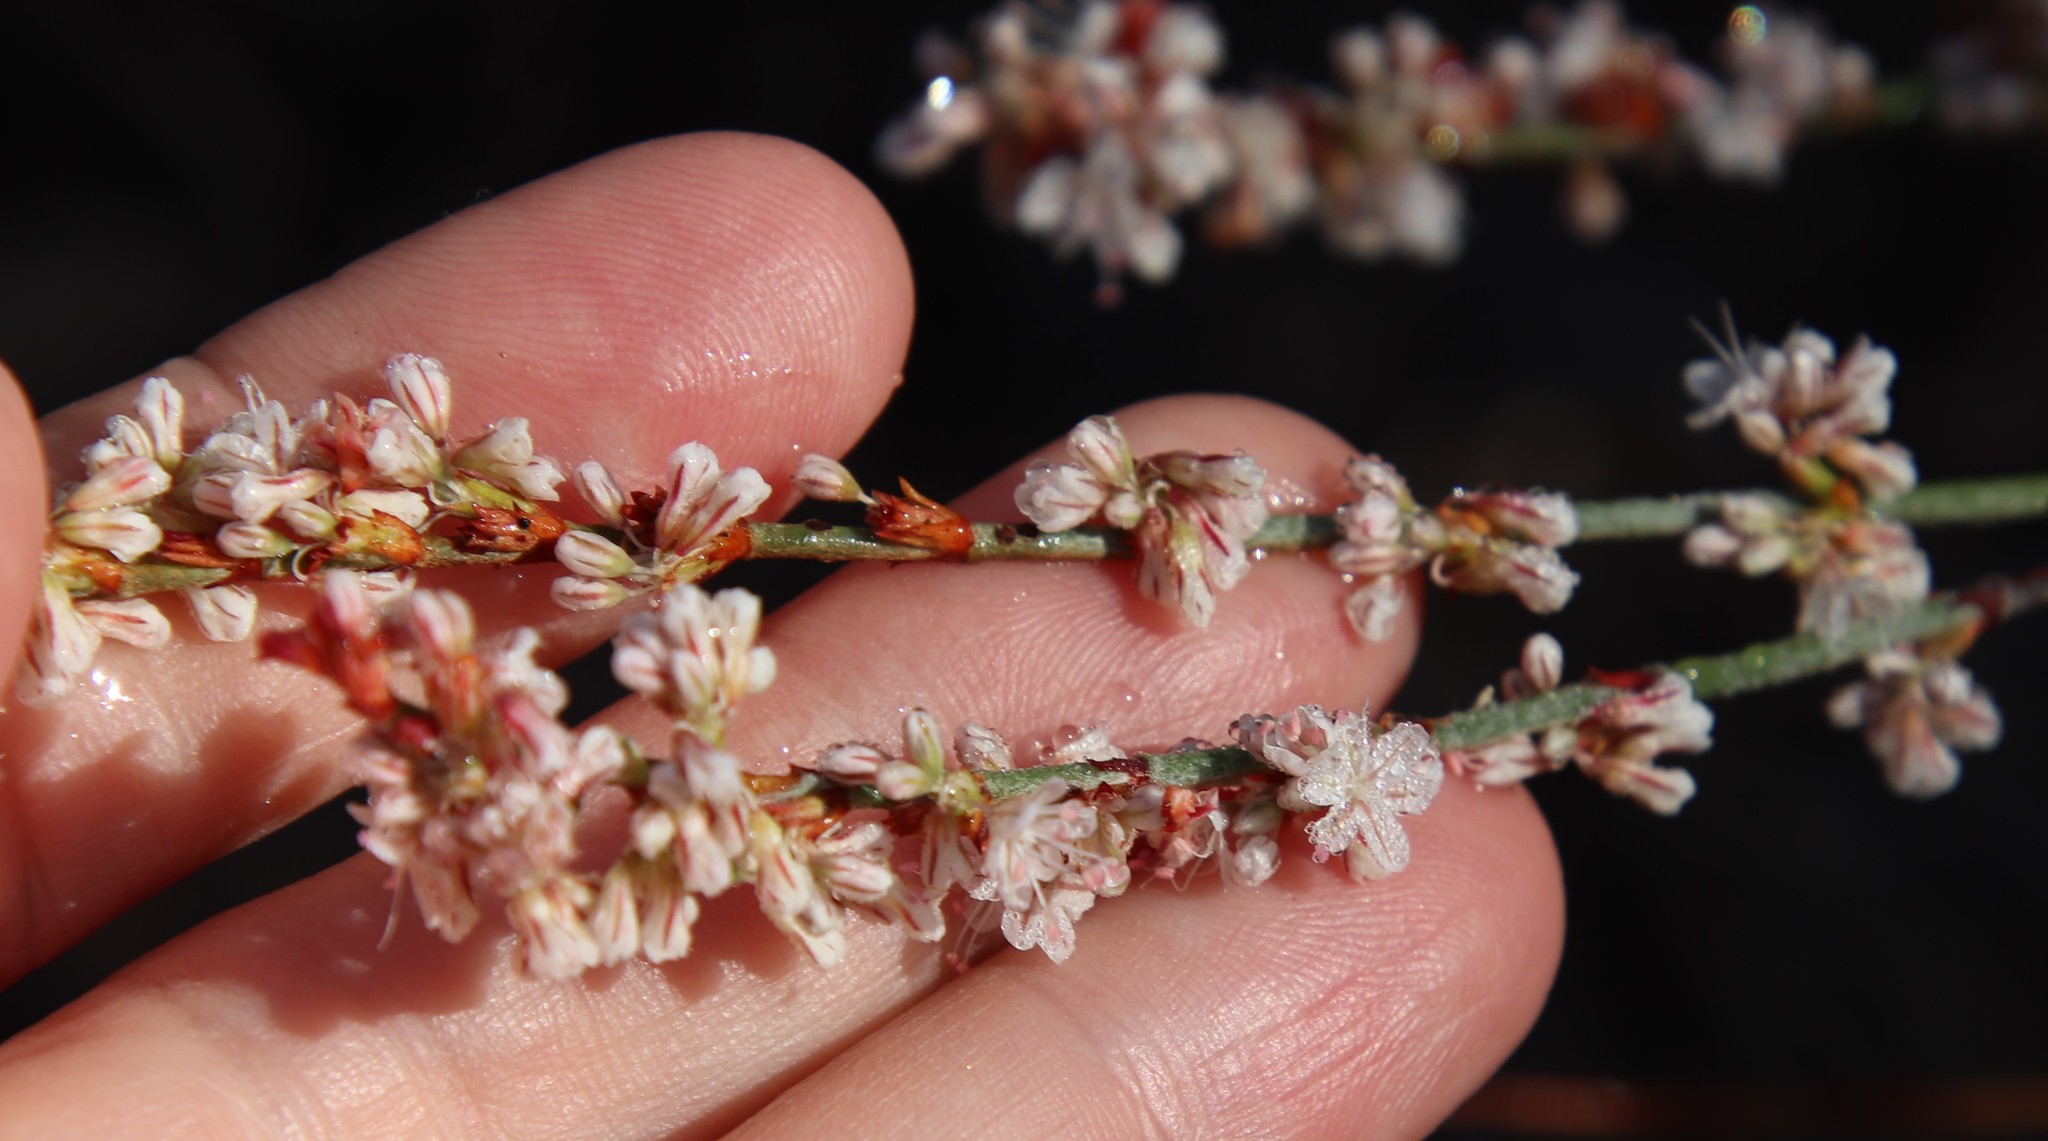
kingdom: Plantae
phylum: Tracheophyta
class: Magnoliopsida
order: Caryophyllales
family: Polygonaceae
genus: Eriogonum
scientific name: Eriogonum wrightii
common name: Bastard-sage
